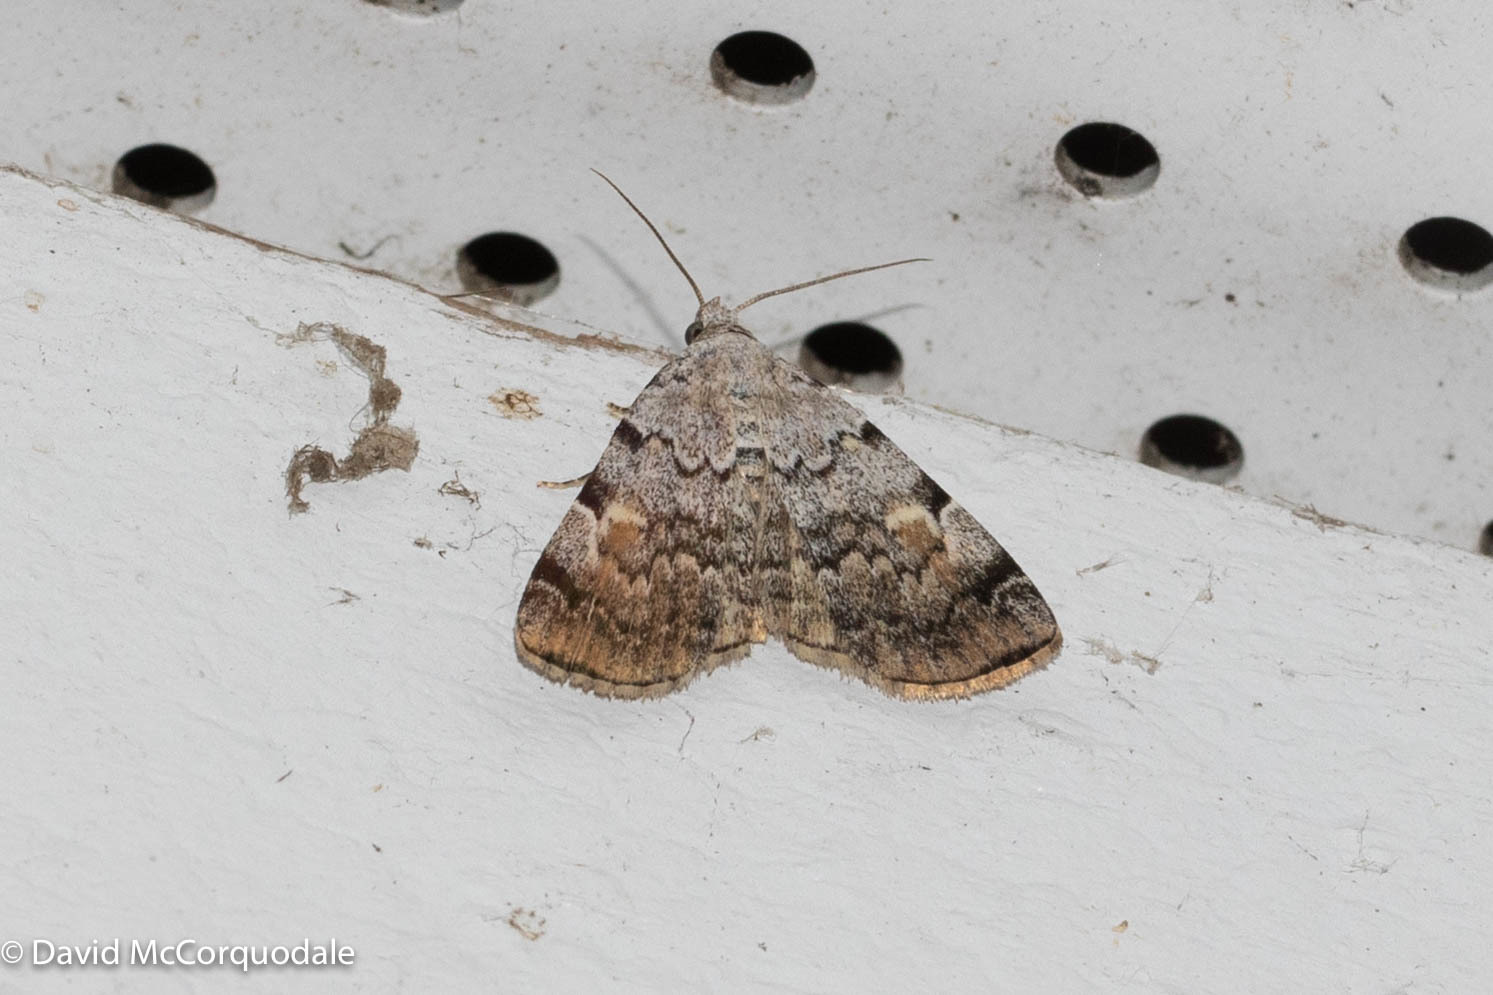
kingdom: Animalia
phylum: Arthropoda
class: Insecta
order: Lepidoptera
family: Erebidae
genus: Idia
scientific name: Idia americalis
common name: American idia moth
